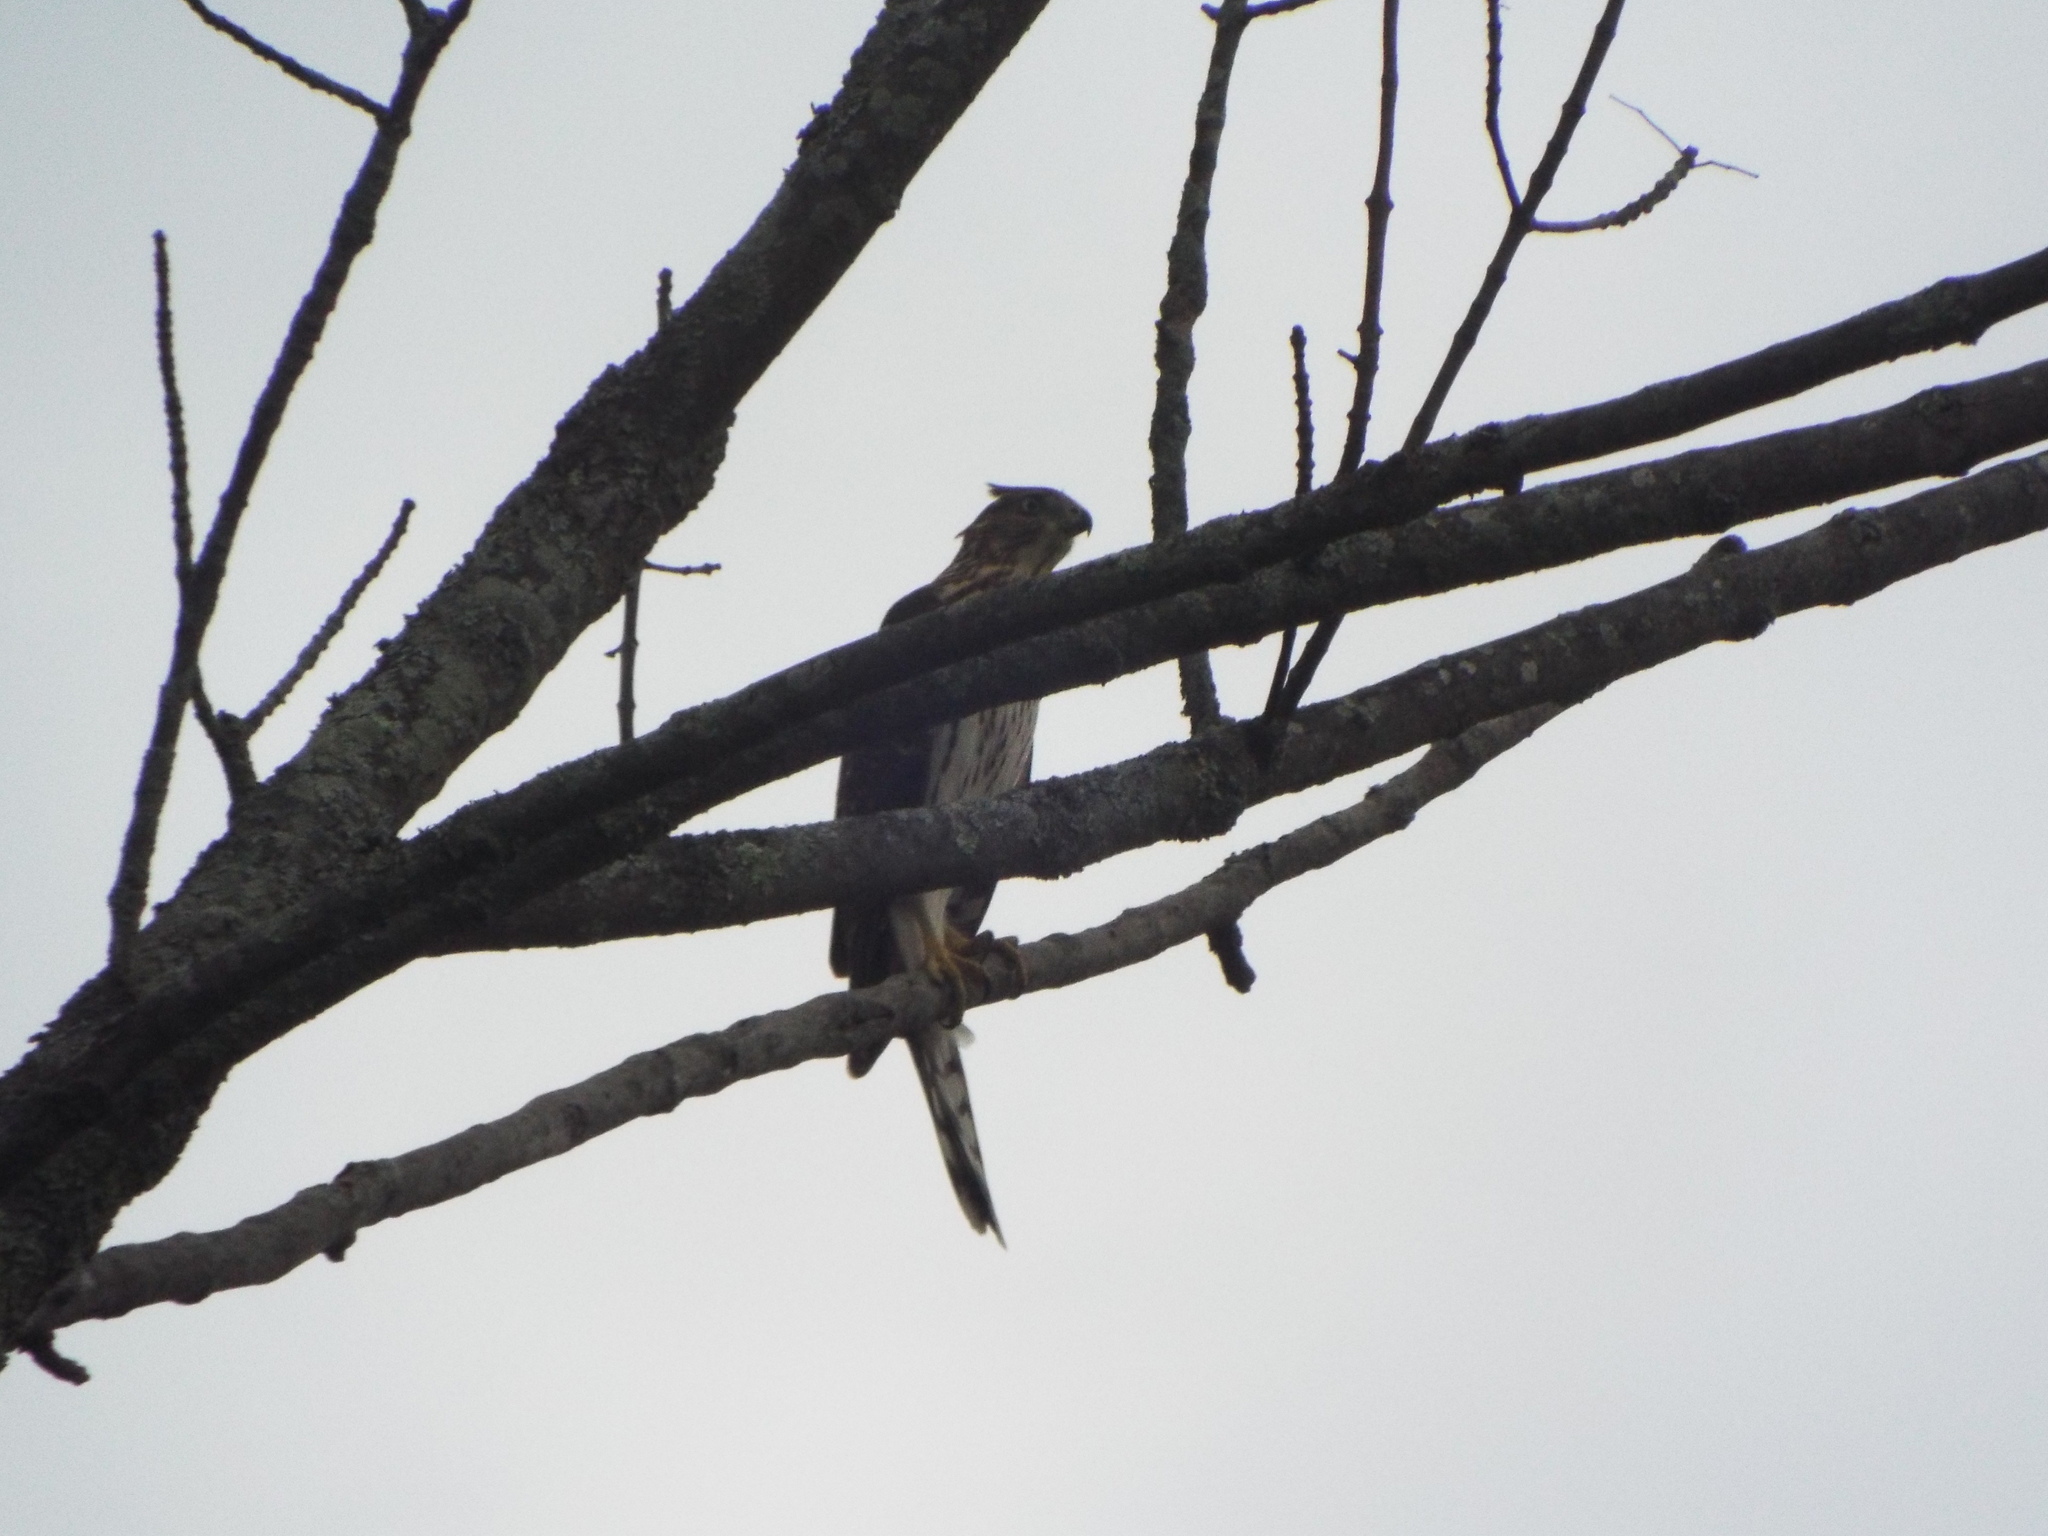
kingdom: Animalia
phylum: Chordata
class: Aves
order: Accipitriformes
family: Accipitridae
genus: Accipiter
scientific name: Accipiter cooperii
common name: Cooper's hawk
